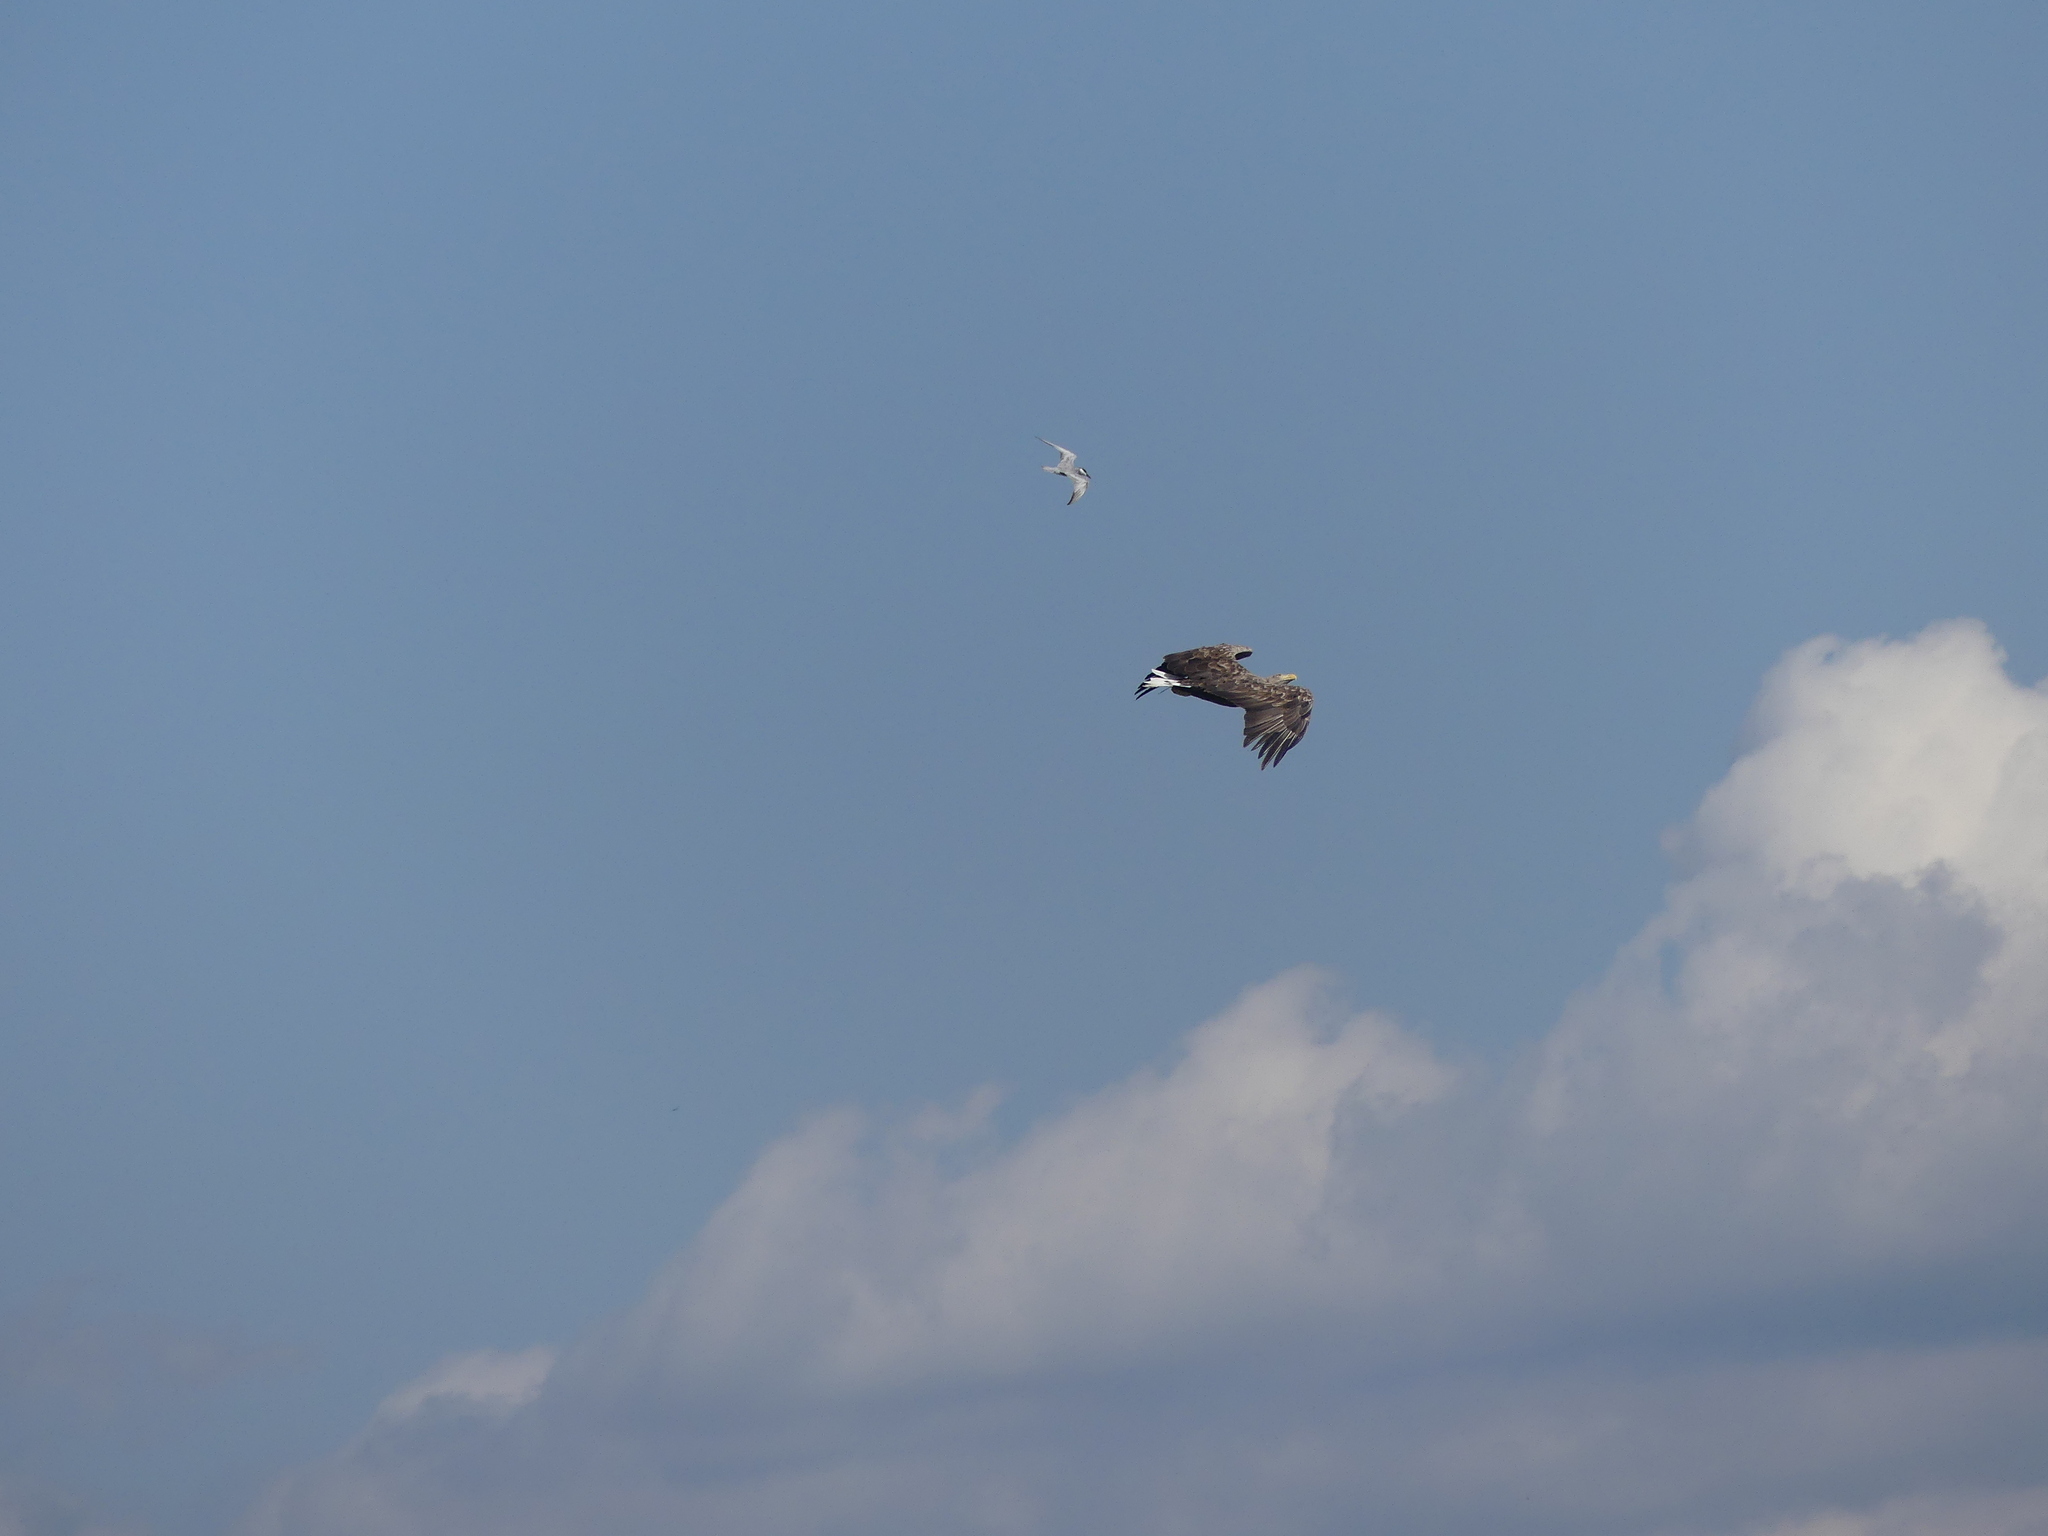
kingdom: Animalia
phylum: Chordata
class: Aves
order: Accipitriformes
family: Accipitridae
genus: Haliaeetus
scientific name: Haliaeetus albicilla
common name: White-tailed eagle
